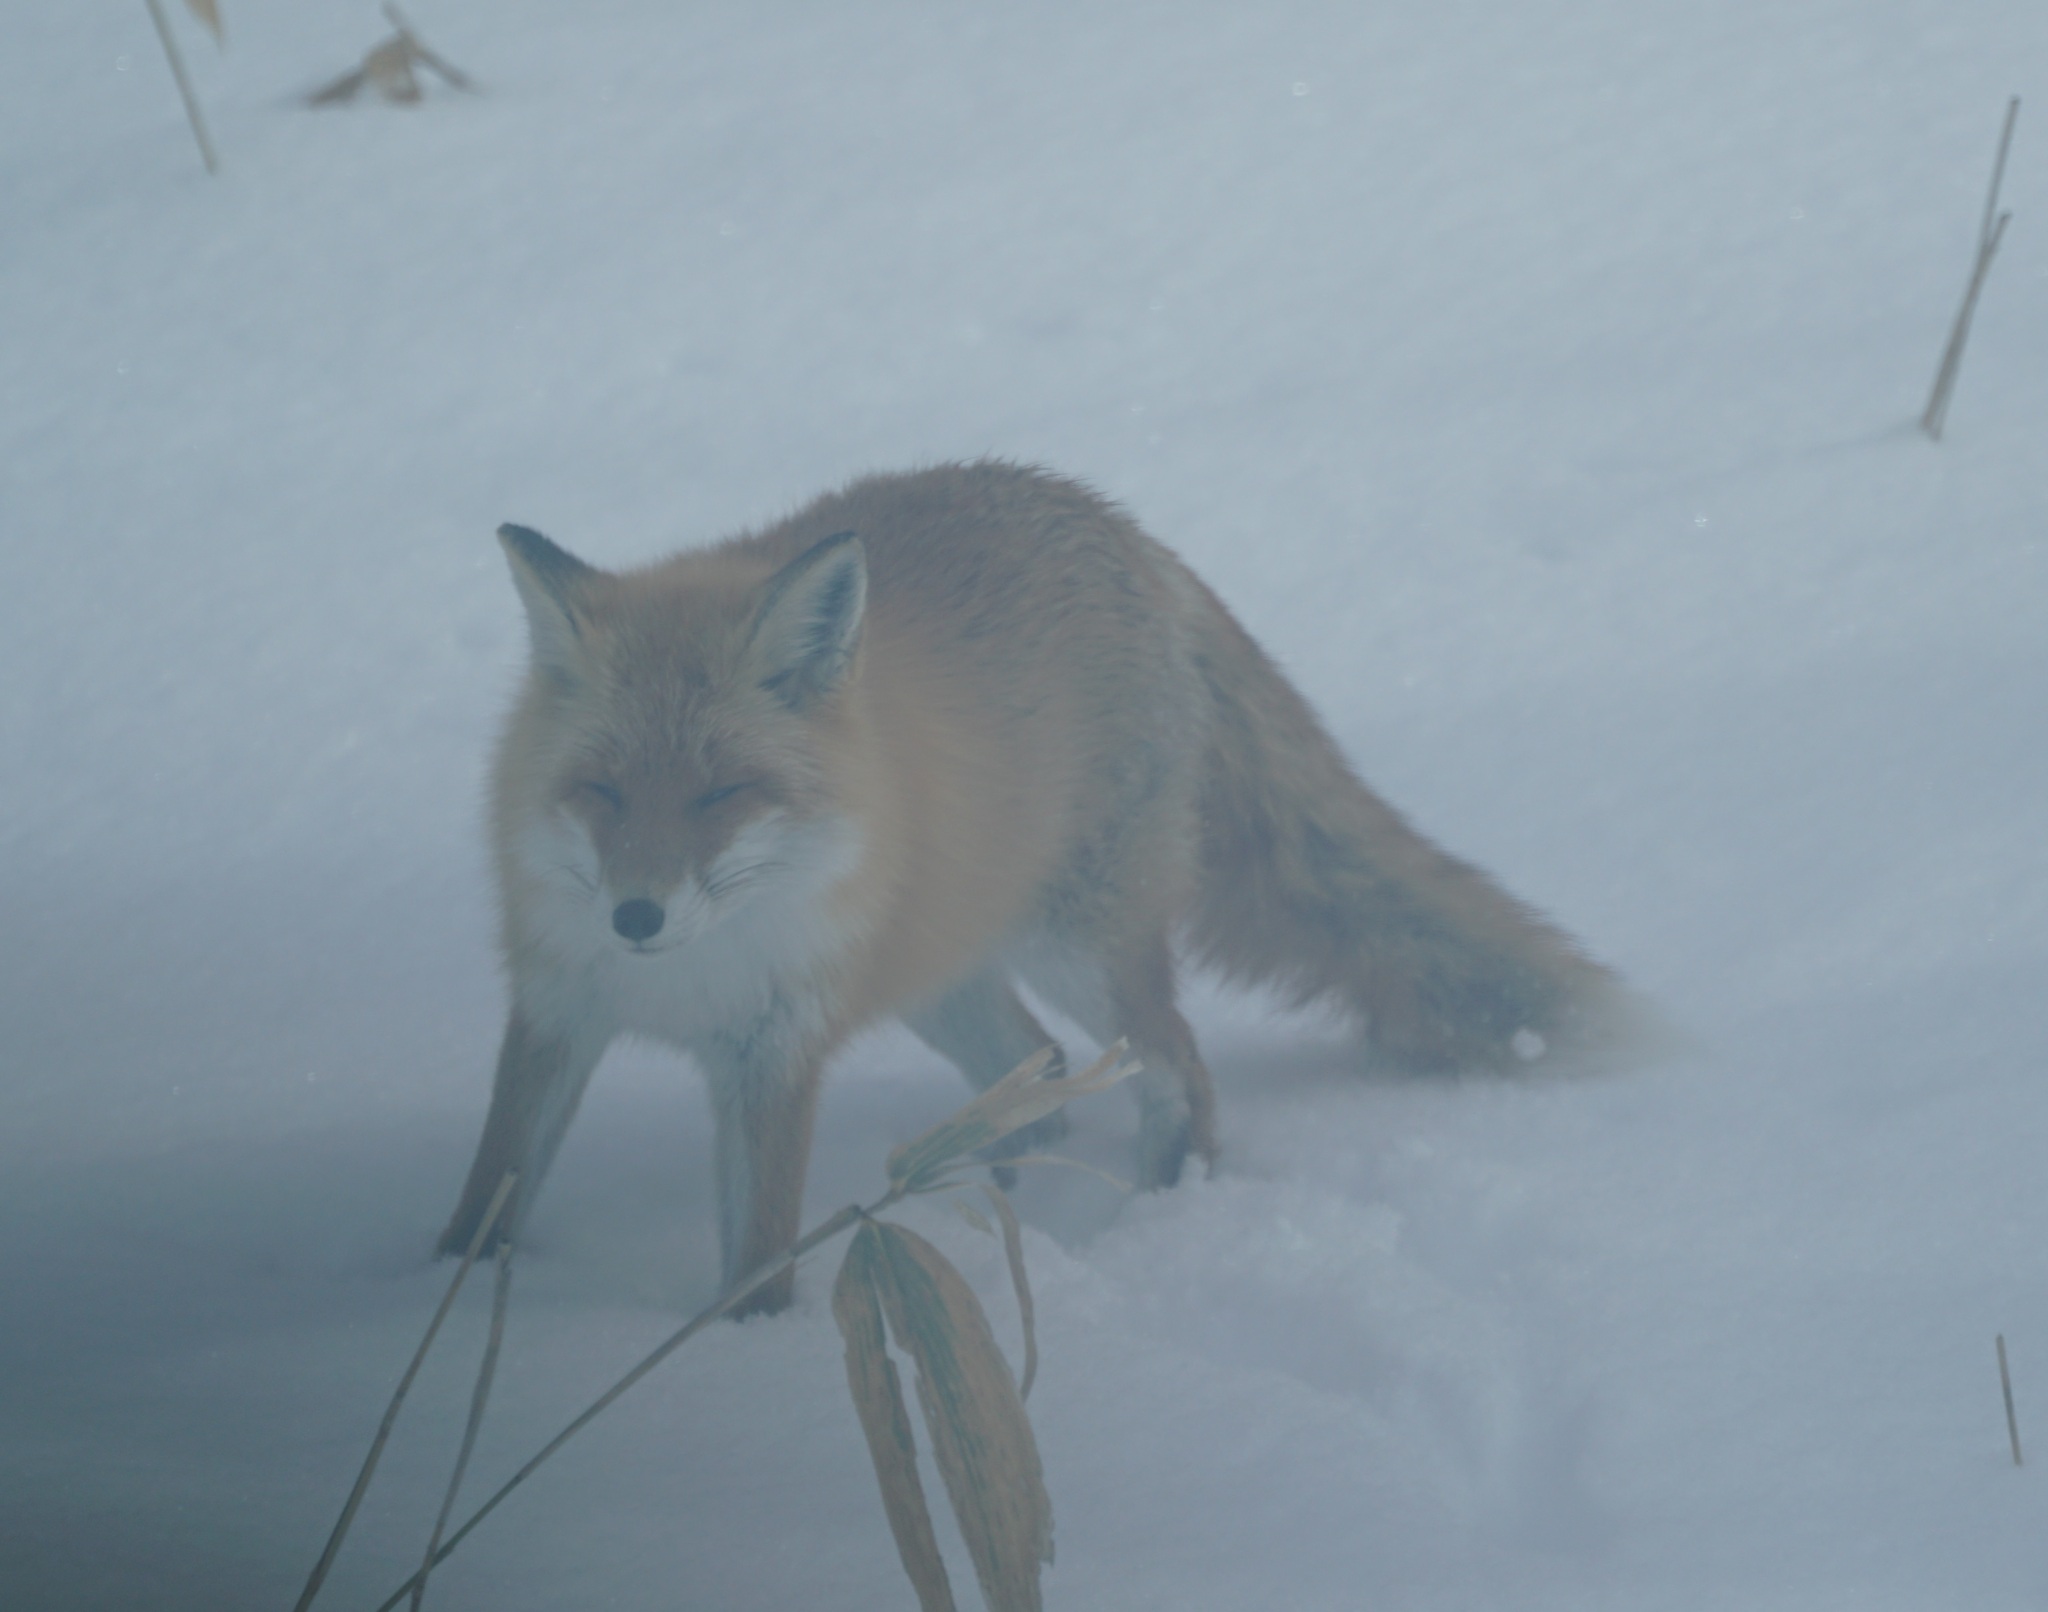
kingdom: Animalia
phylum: Chordata
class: Mammalia
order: Carnivora
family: Canidae
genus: Vulpes
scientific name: Vulpes vulpes
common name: Red fox
